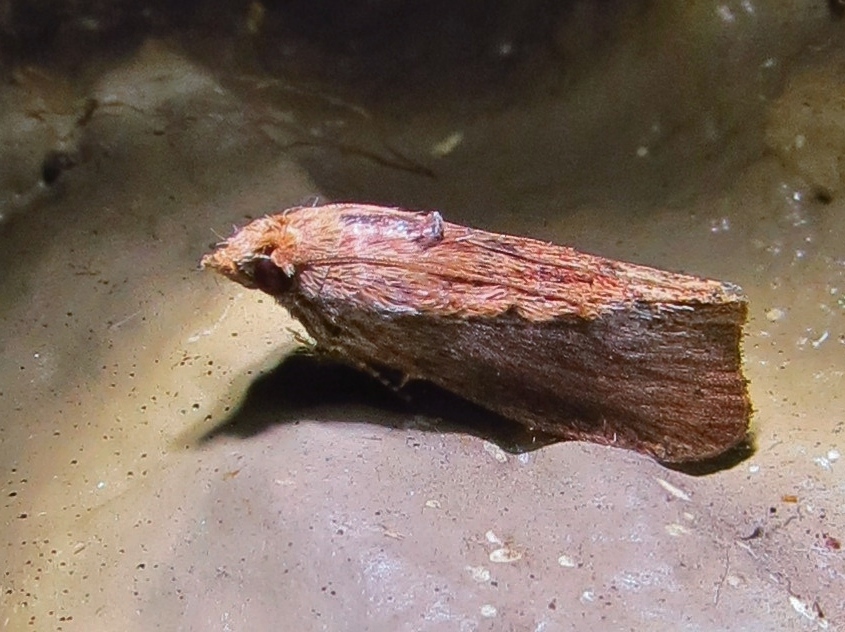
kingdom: Animalia
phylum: Arthropoda
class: Insecta
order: Lepidoptera
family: Pyralidae
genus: Galleria
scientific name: Galleria mellonella
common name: Greater wax moth
